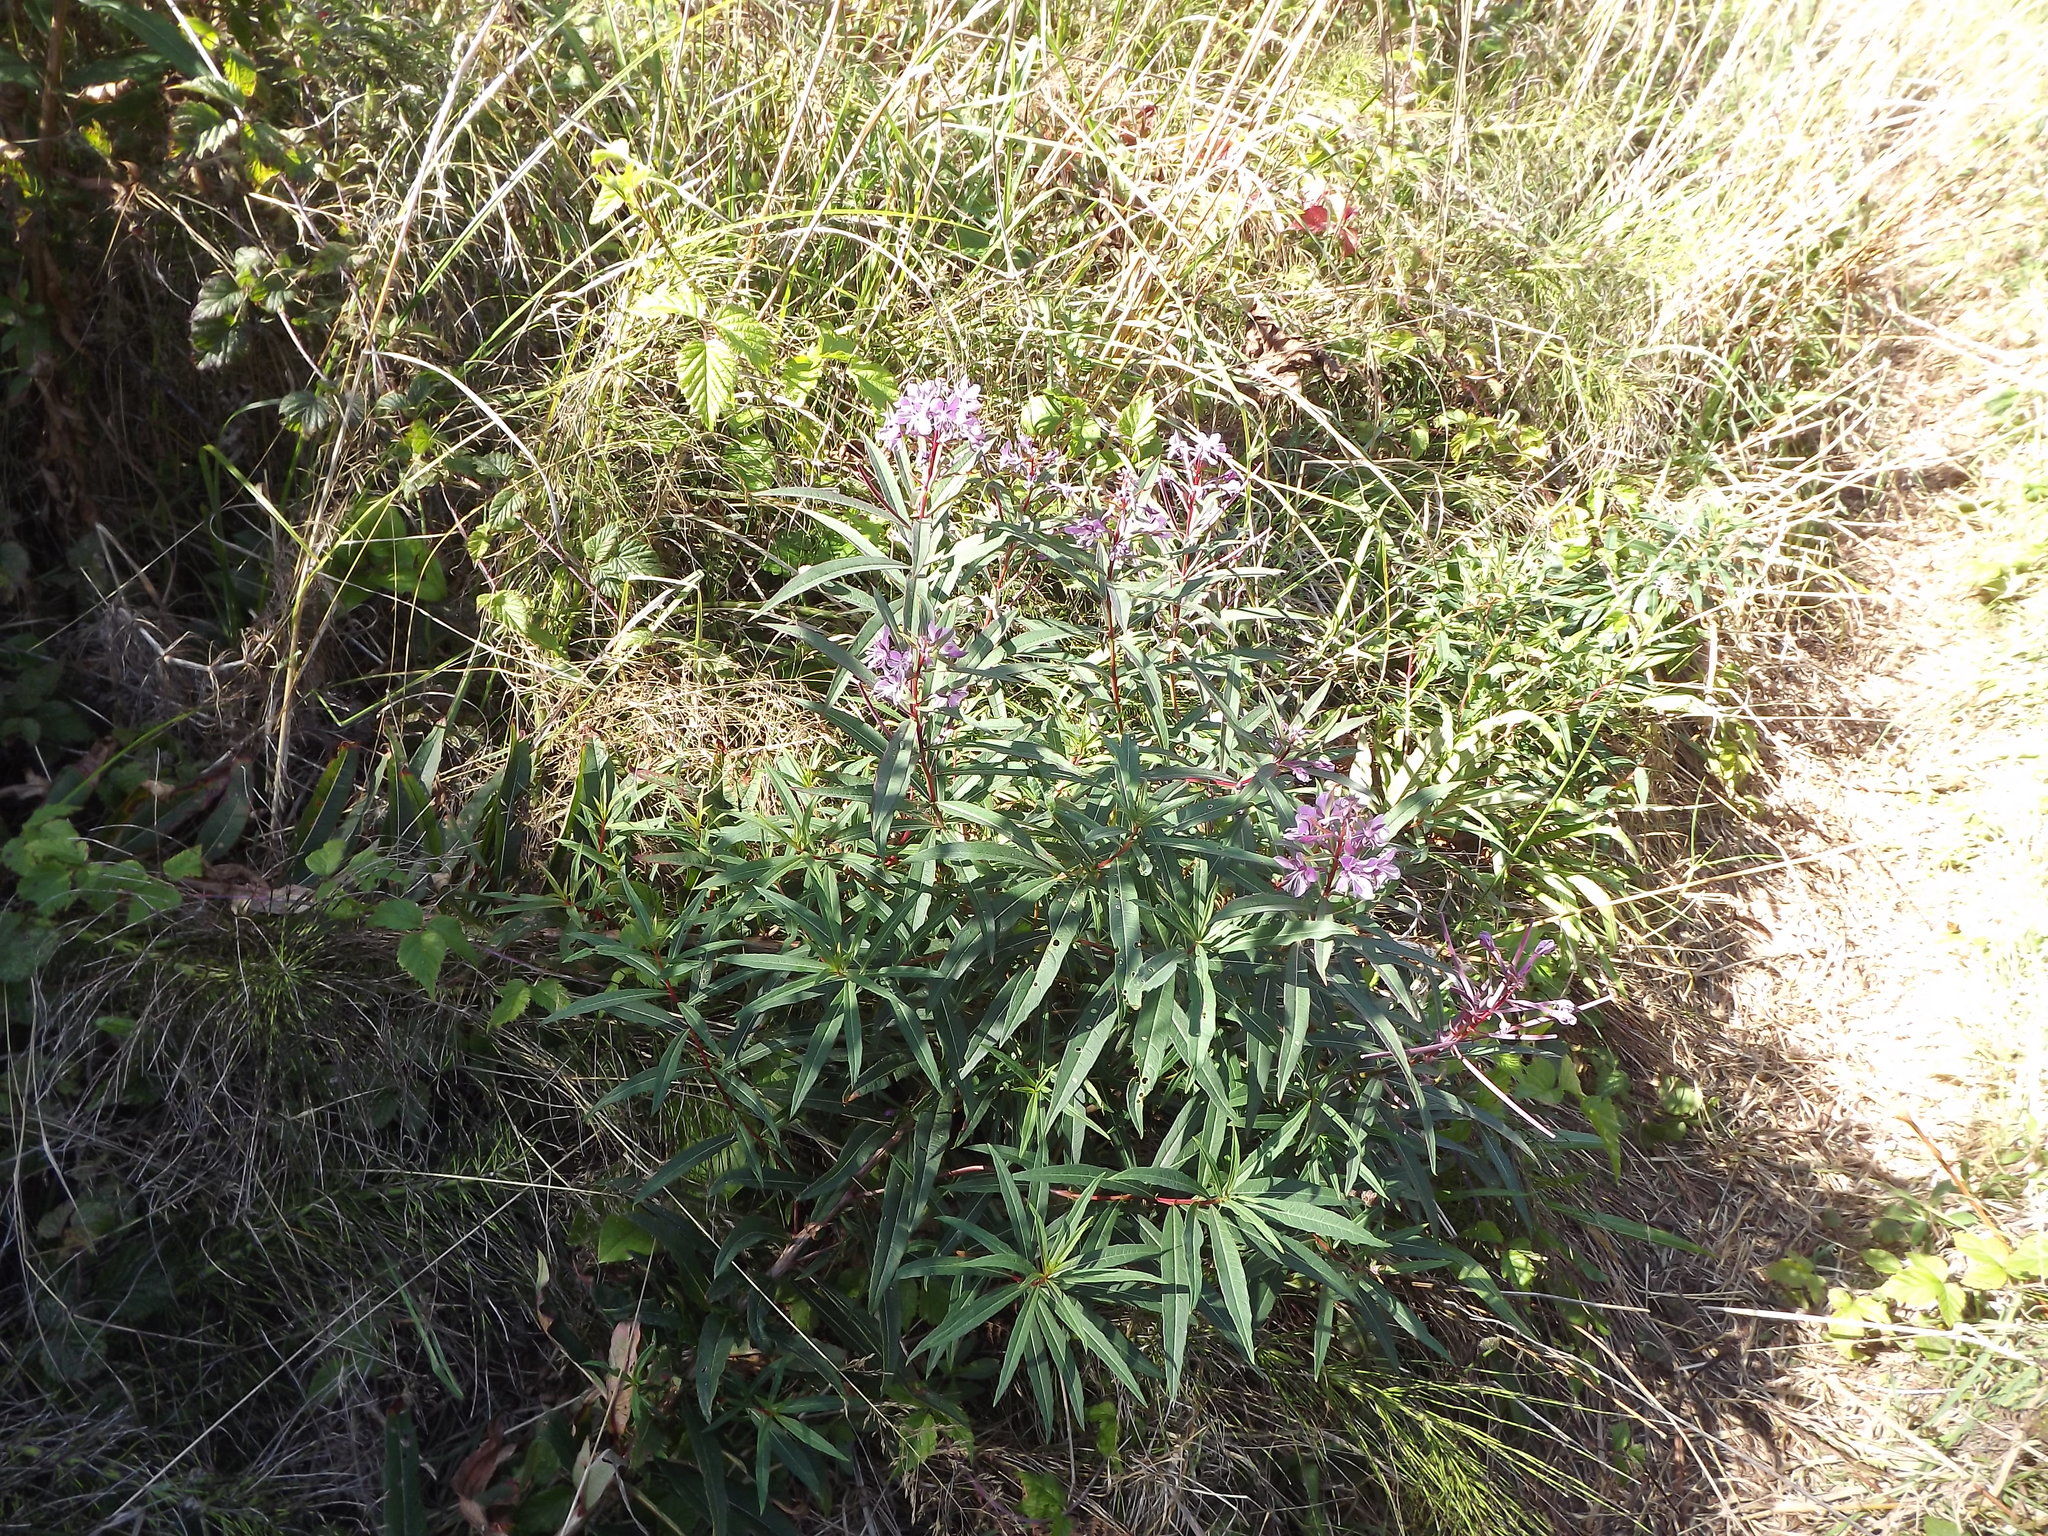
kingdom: Plantae
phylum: Tracheophyta
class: Magnoliopsida
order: Myrtales
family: Onagraceae
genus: Chamaenerion
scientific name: Chamaenerion angustifolium
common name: Fireweed
